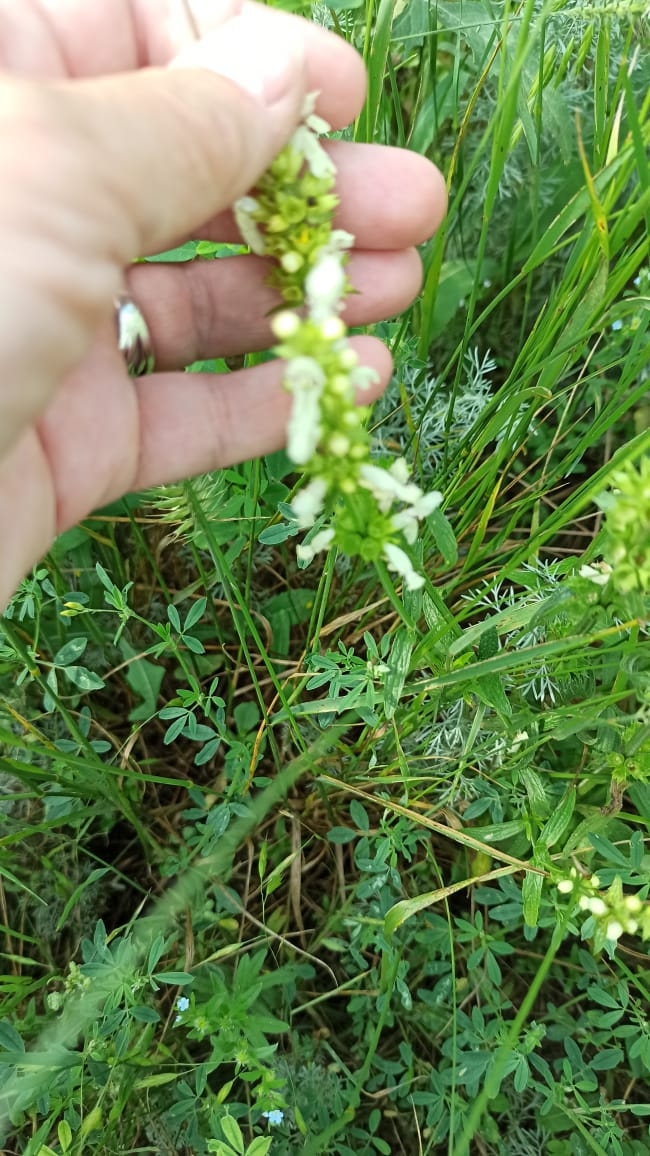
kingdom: Plantae
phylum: Tracheophyta
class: Magnoliopsida
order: Lamiales
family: Lamiaceae
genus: Stachys
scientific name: Stachys recta
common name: Perennial yellow-woundwort
